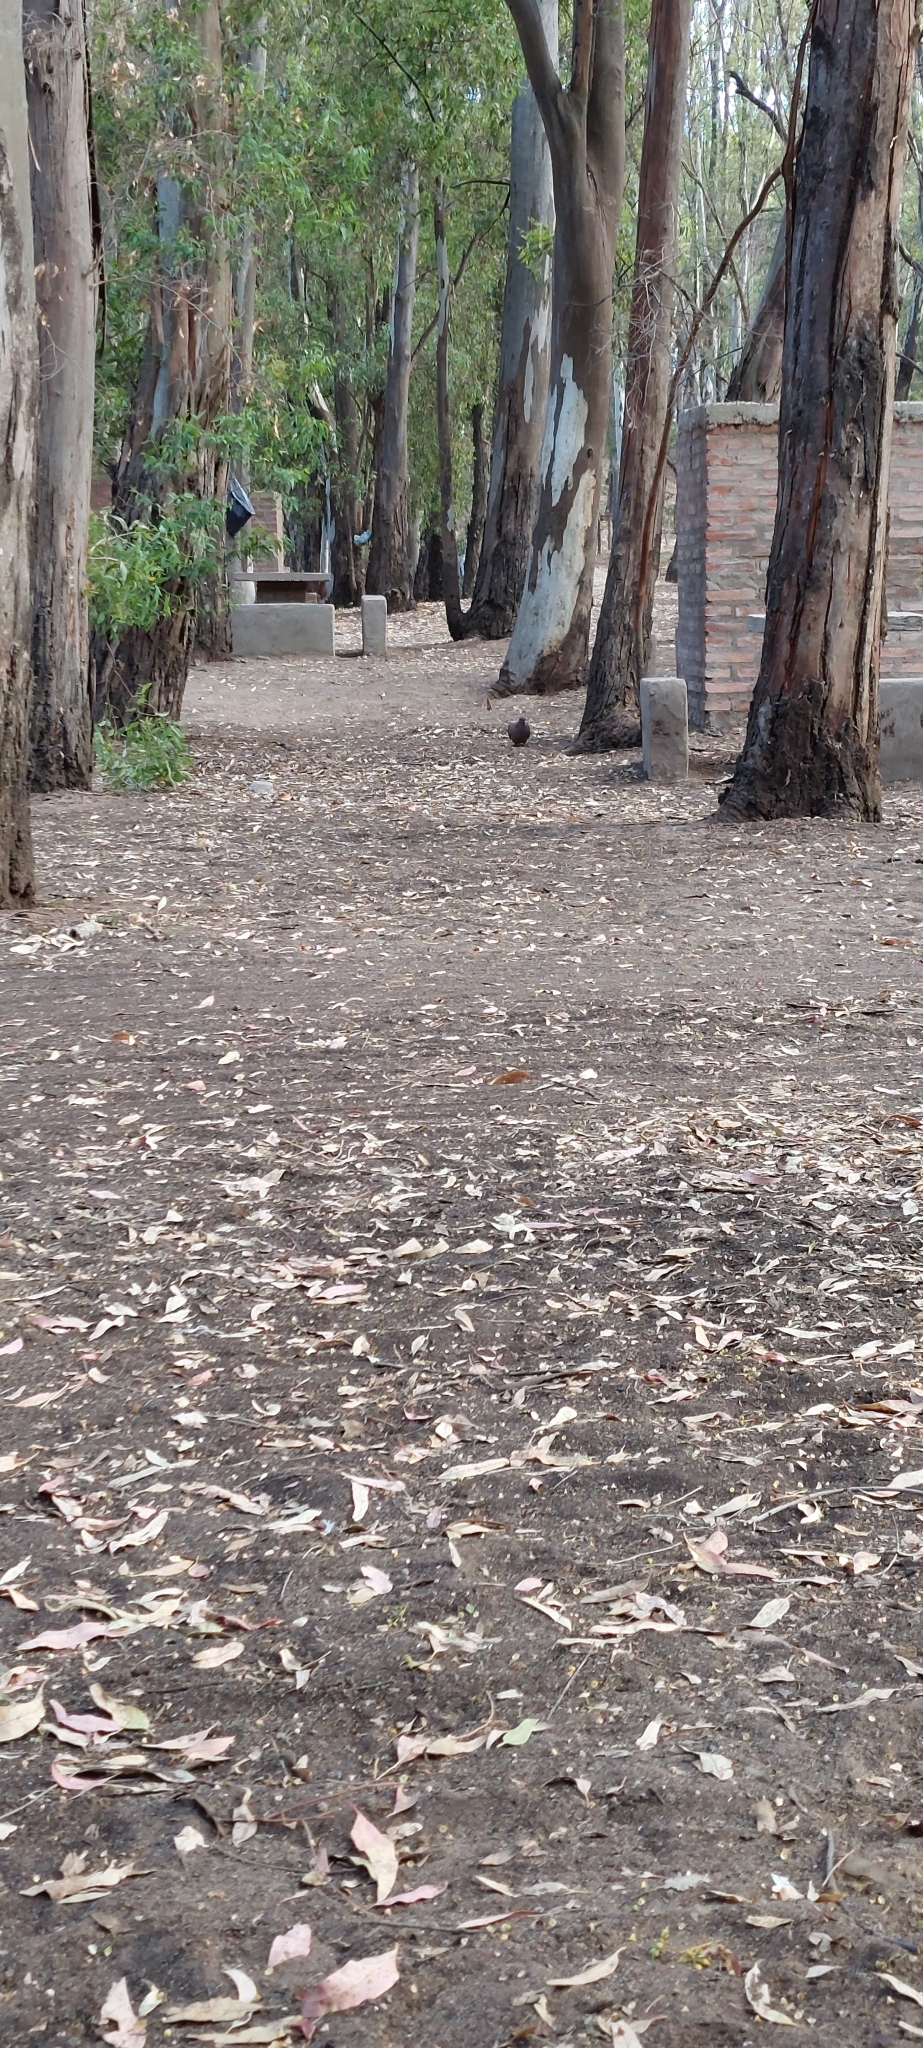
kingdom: Animalia
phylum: Chordata
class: Aves
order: Columbiformes
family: Columbidae
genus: Patagioenas
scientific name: Patagioenas picazuro
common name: Picazuro pigeon
